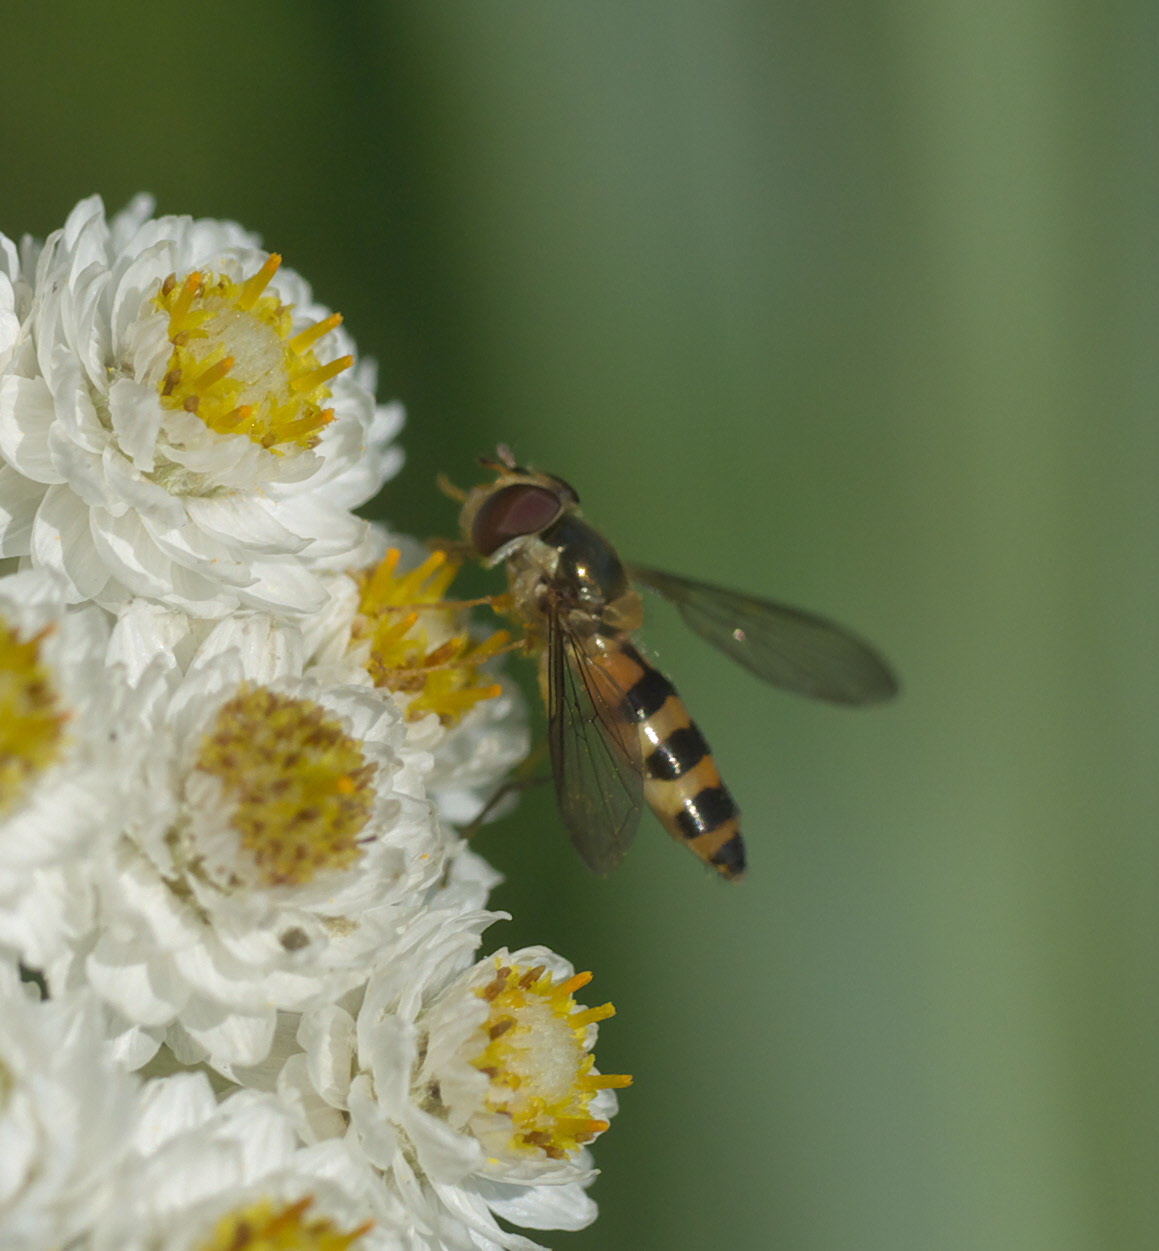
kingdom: Animalia
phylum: Arthropoda
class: Insecta
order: Diptera
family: Syrphidae
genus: Meliscaeva
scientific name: Meliscaeva cinctella
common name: American thintail fly
